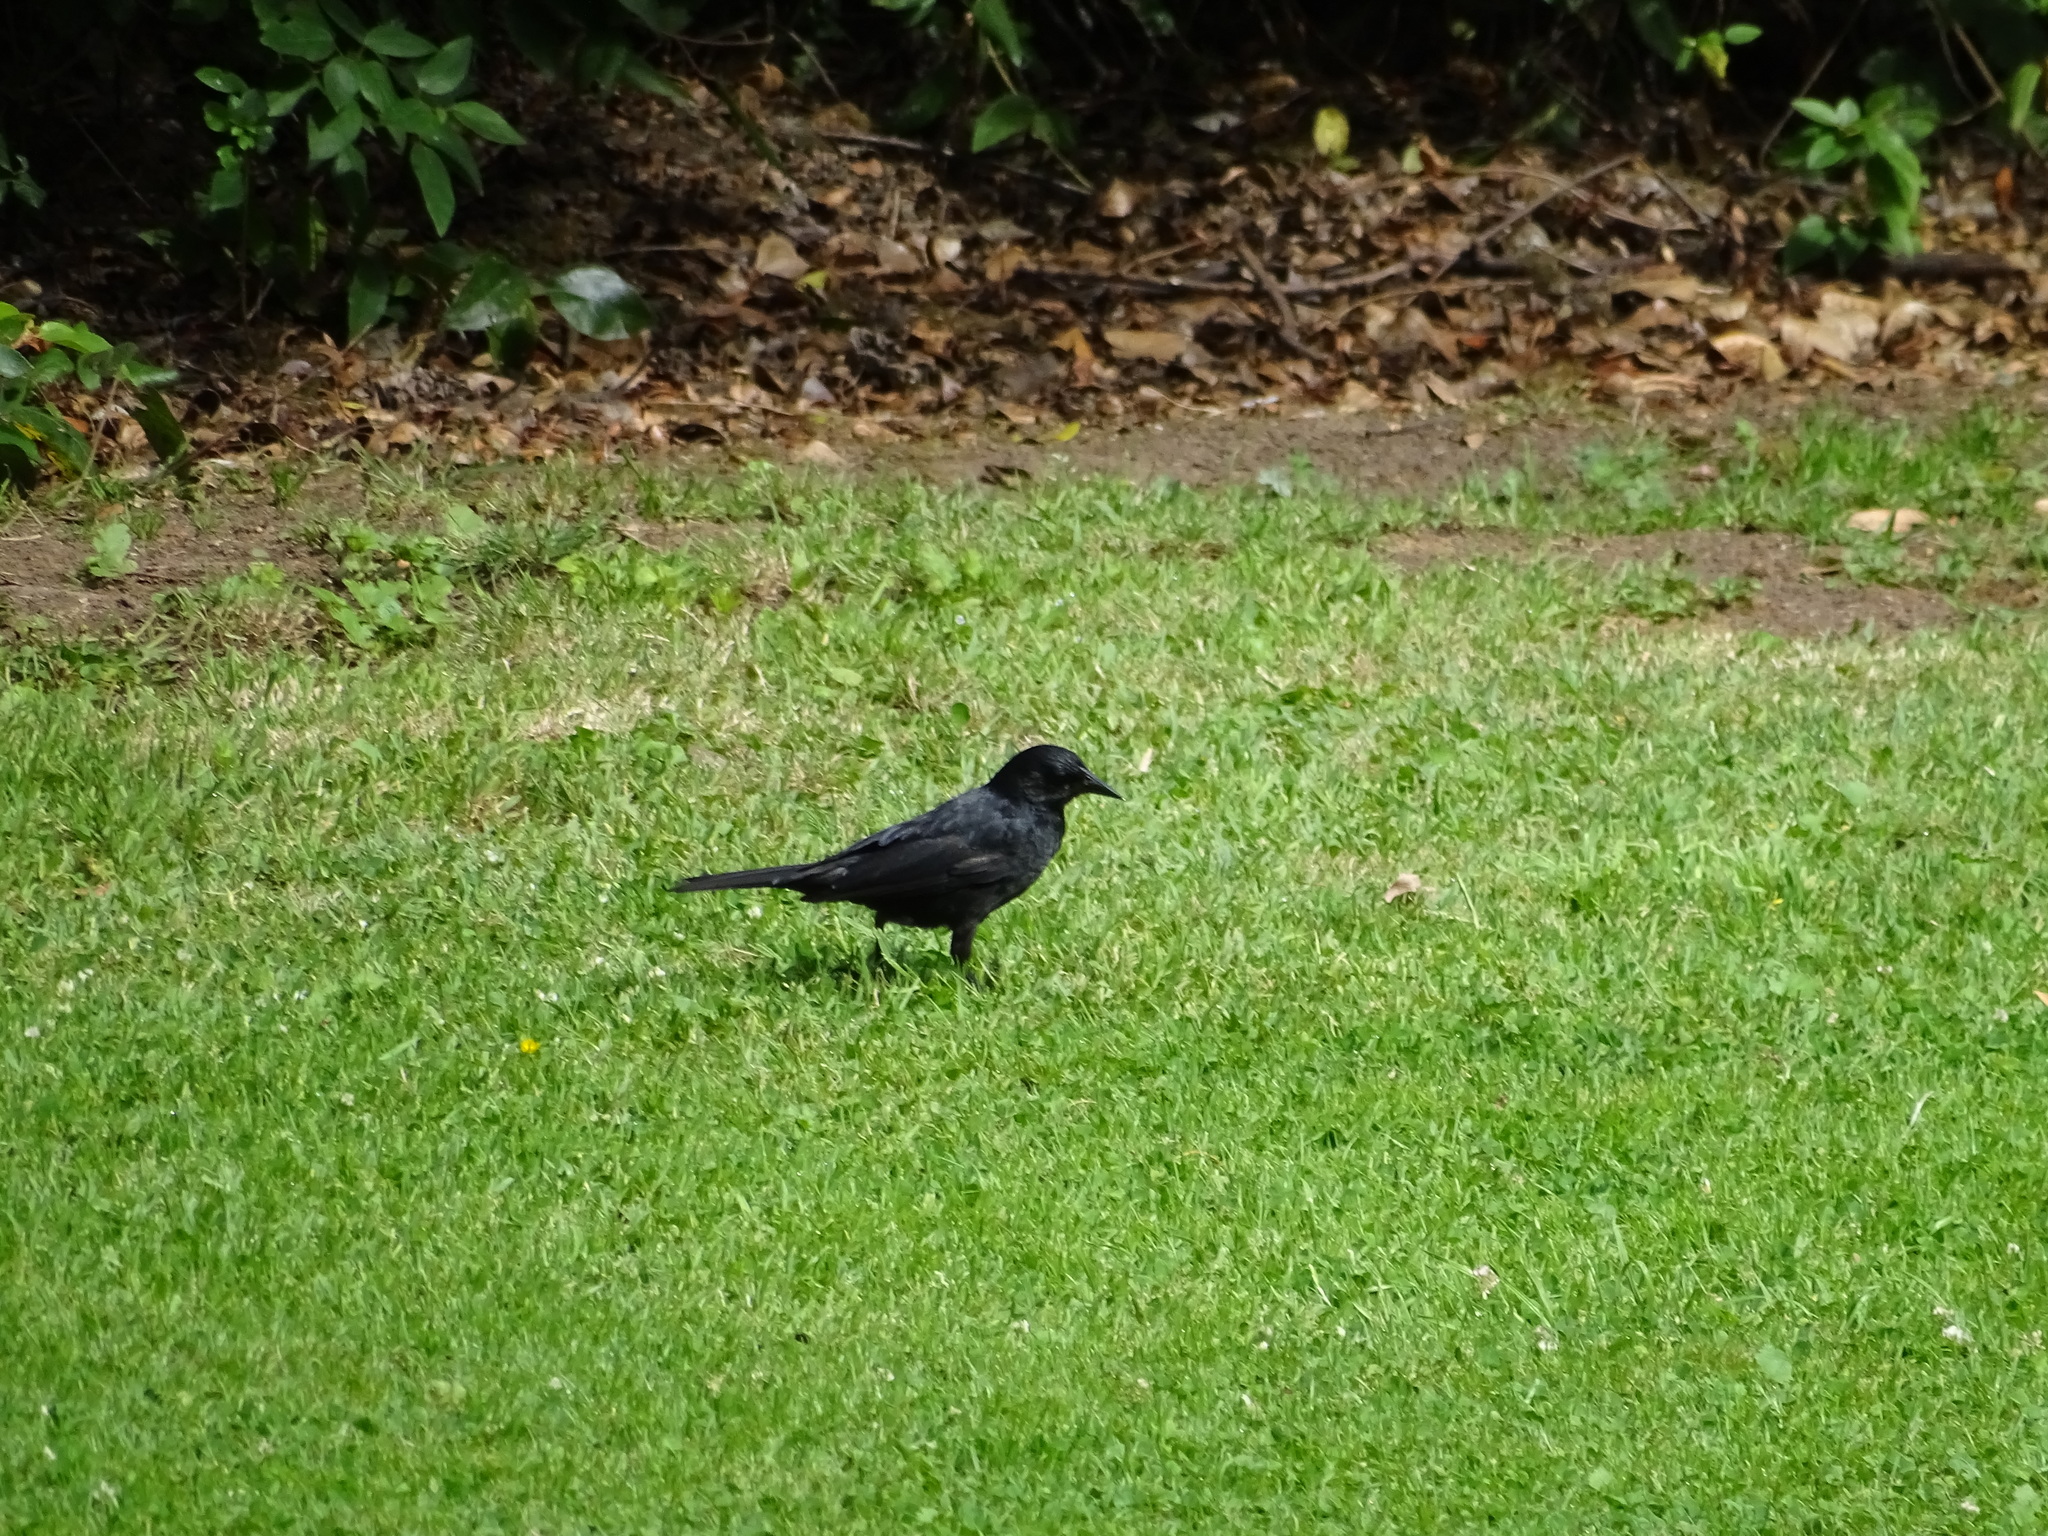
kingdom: Animalia
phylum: Chordata
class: Aves
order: Passeriformes
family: Icteridae
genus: Curaeus
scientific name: Curaeus curaeus
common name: Austral blackbird
